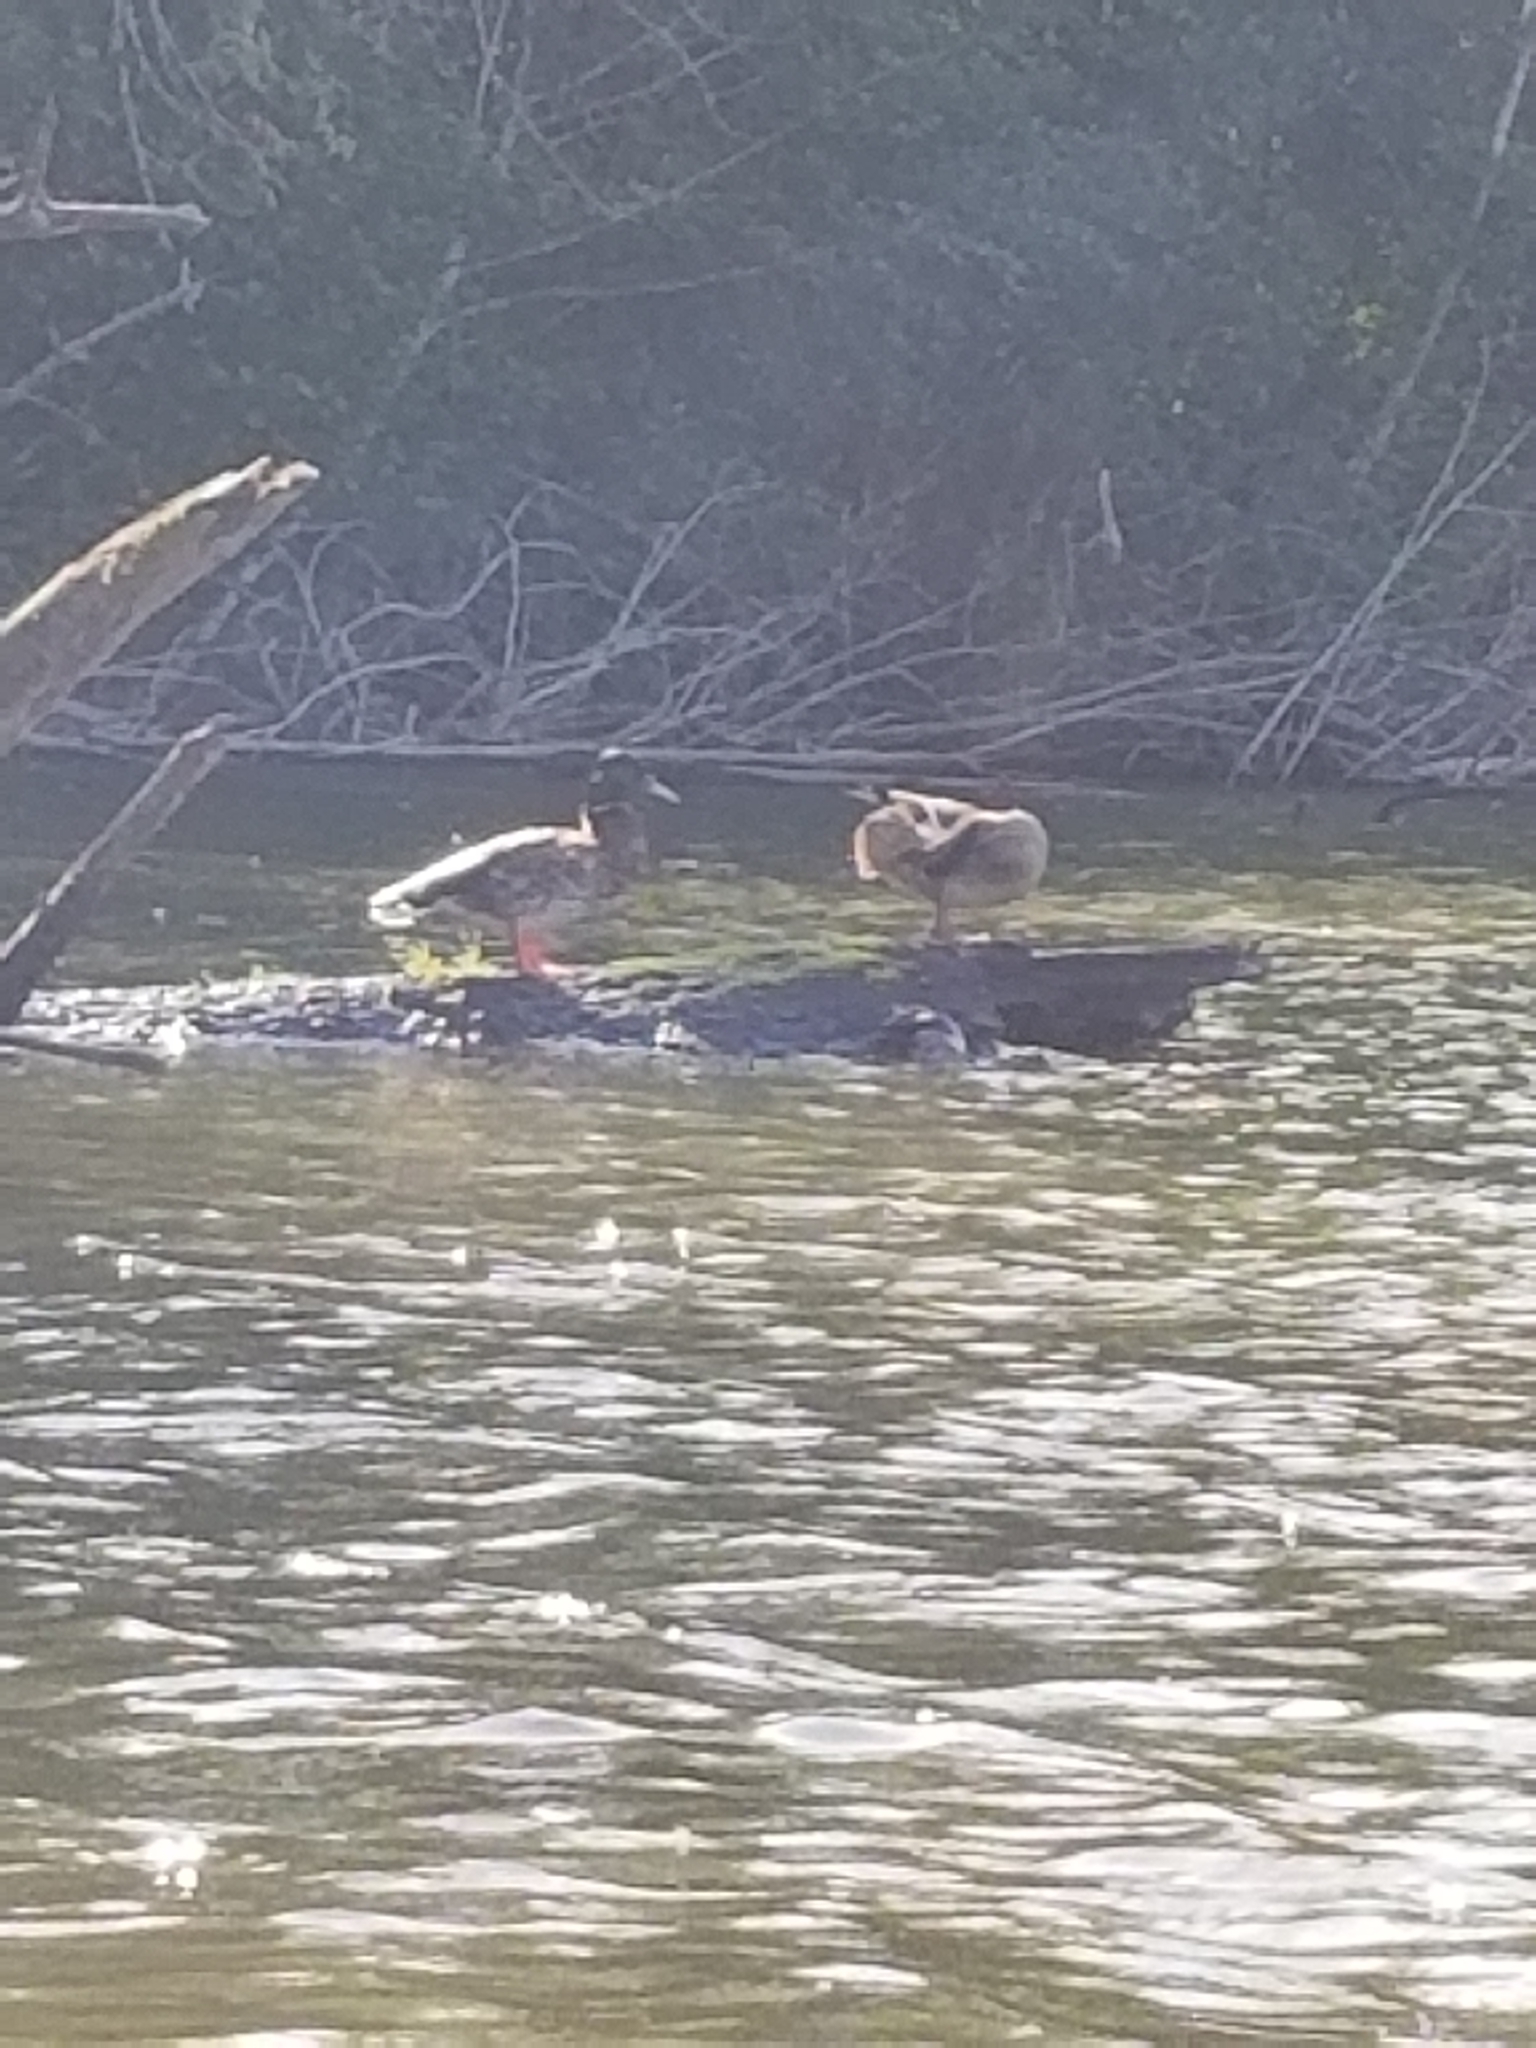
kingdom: Animalia
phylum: Chordata
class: Aves
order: Anseriformes
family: Anatidae
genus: Anas
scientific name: Anas platyrhynchos
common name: Mallard
